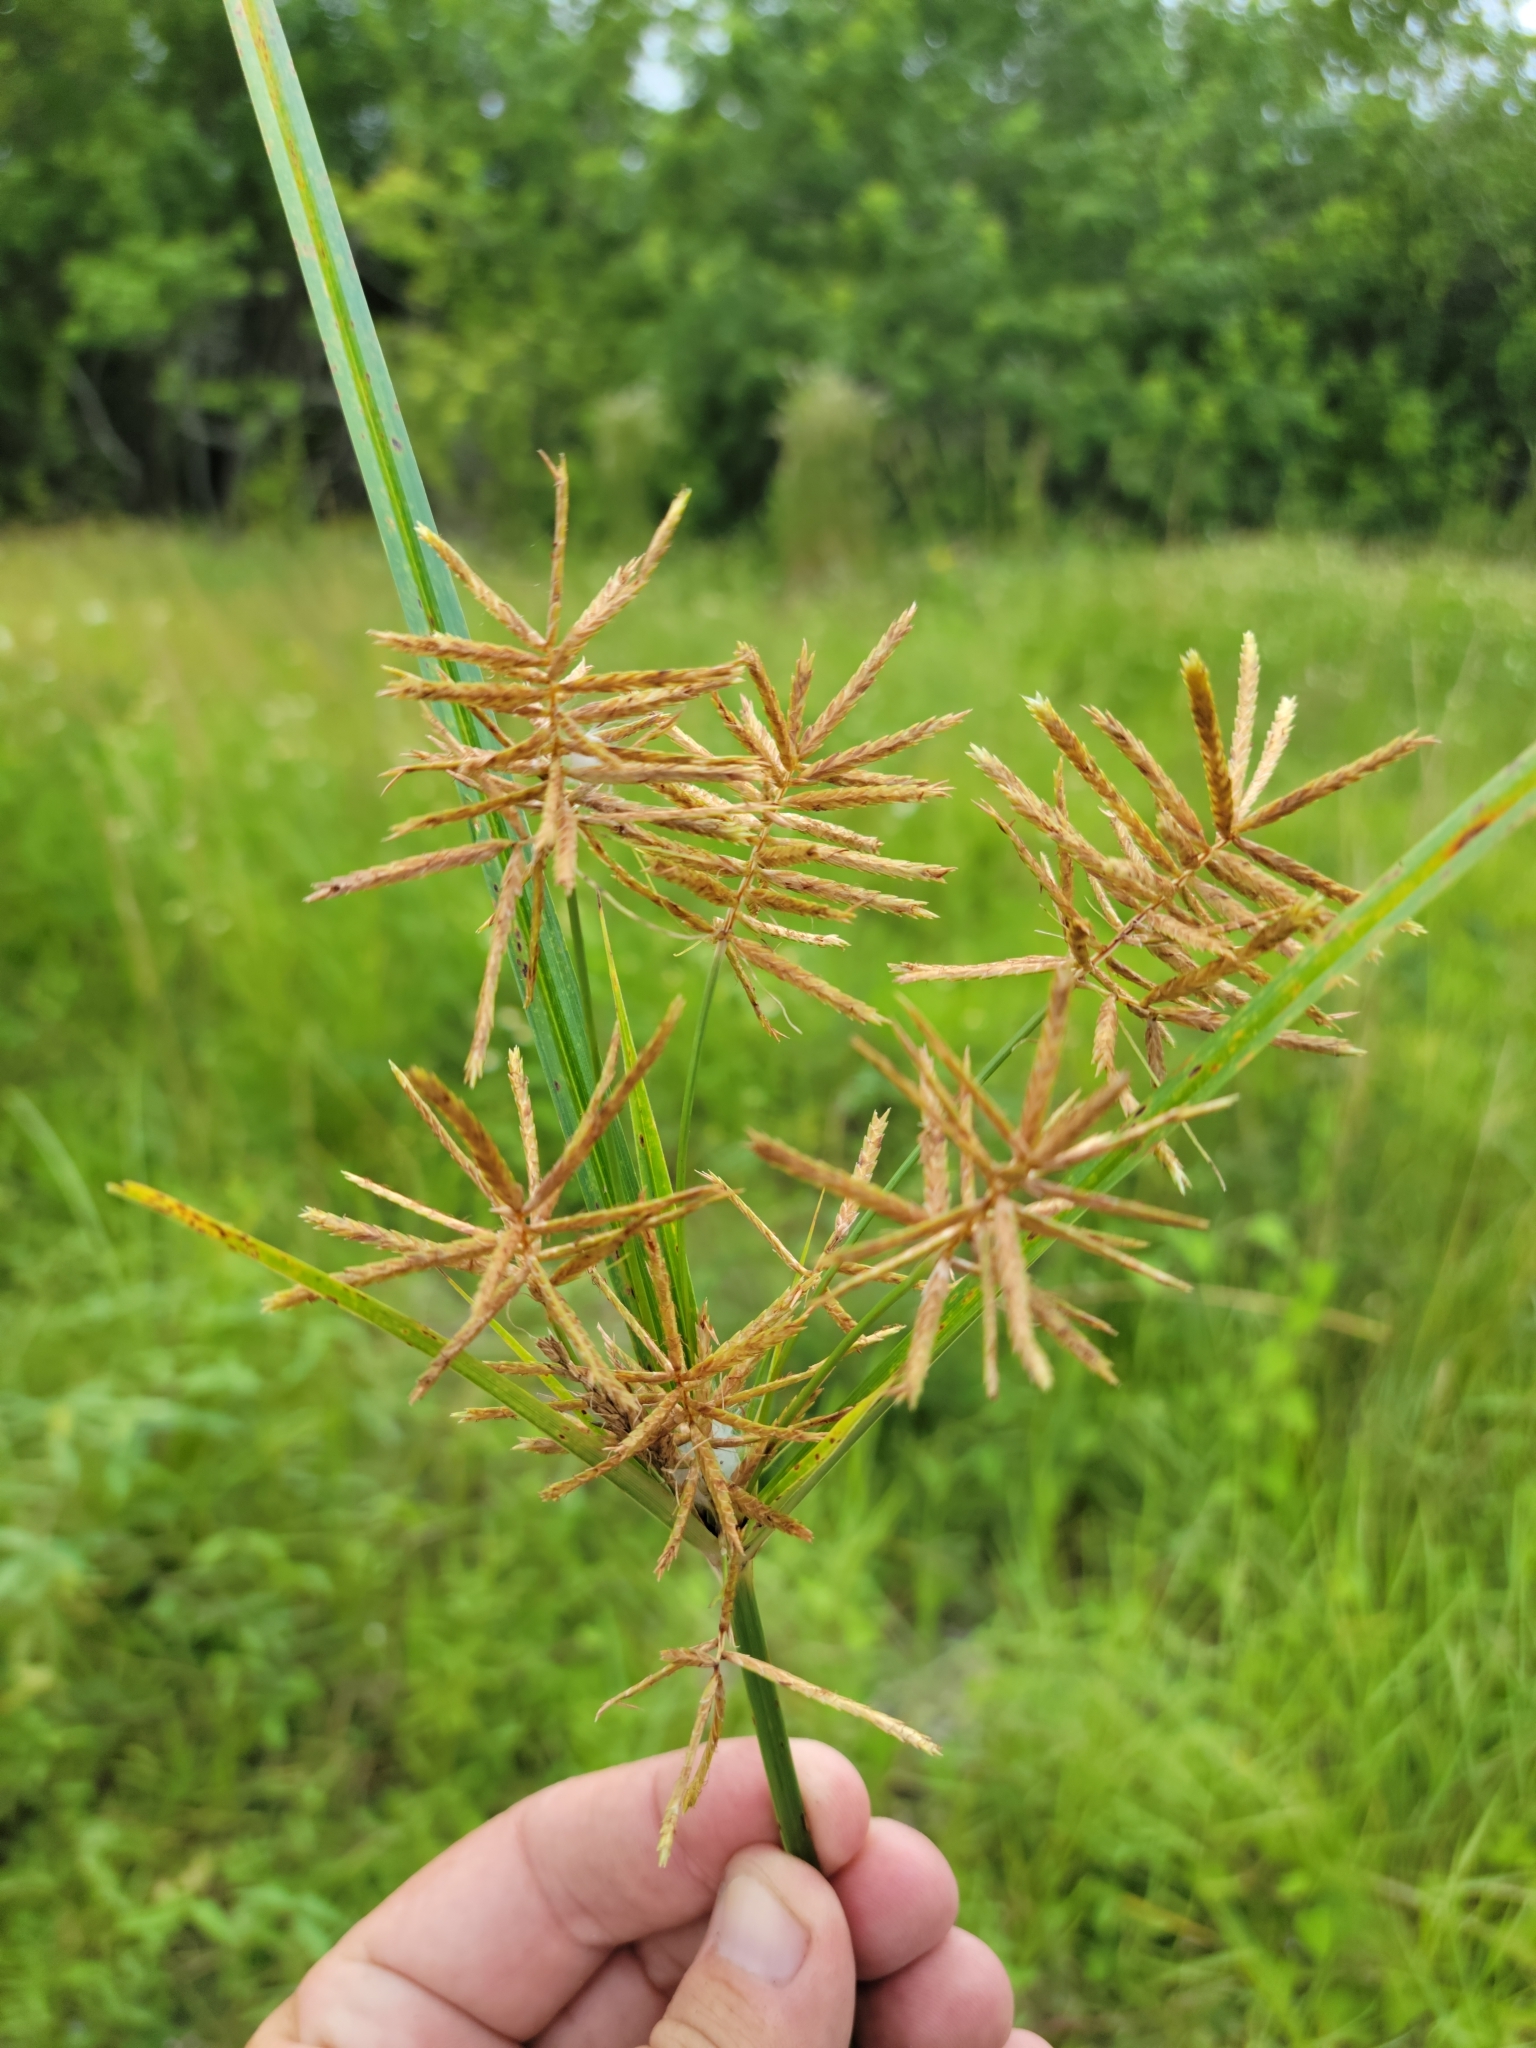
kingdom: Plantae
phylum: Tracheophyta
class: Liliopsida
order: Poales
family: Cyperaceae
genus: Cyperus
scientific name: Cyperus esculentus
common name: Yellow nutsedge
